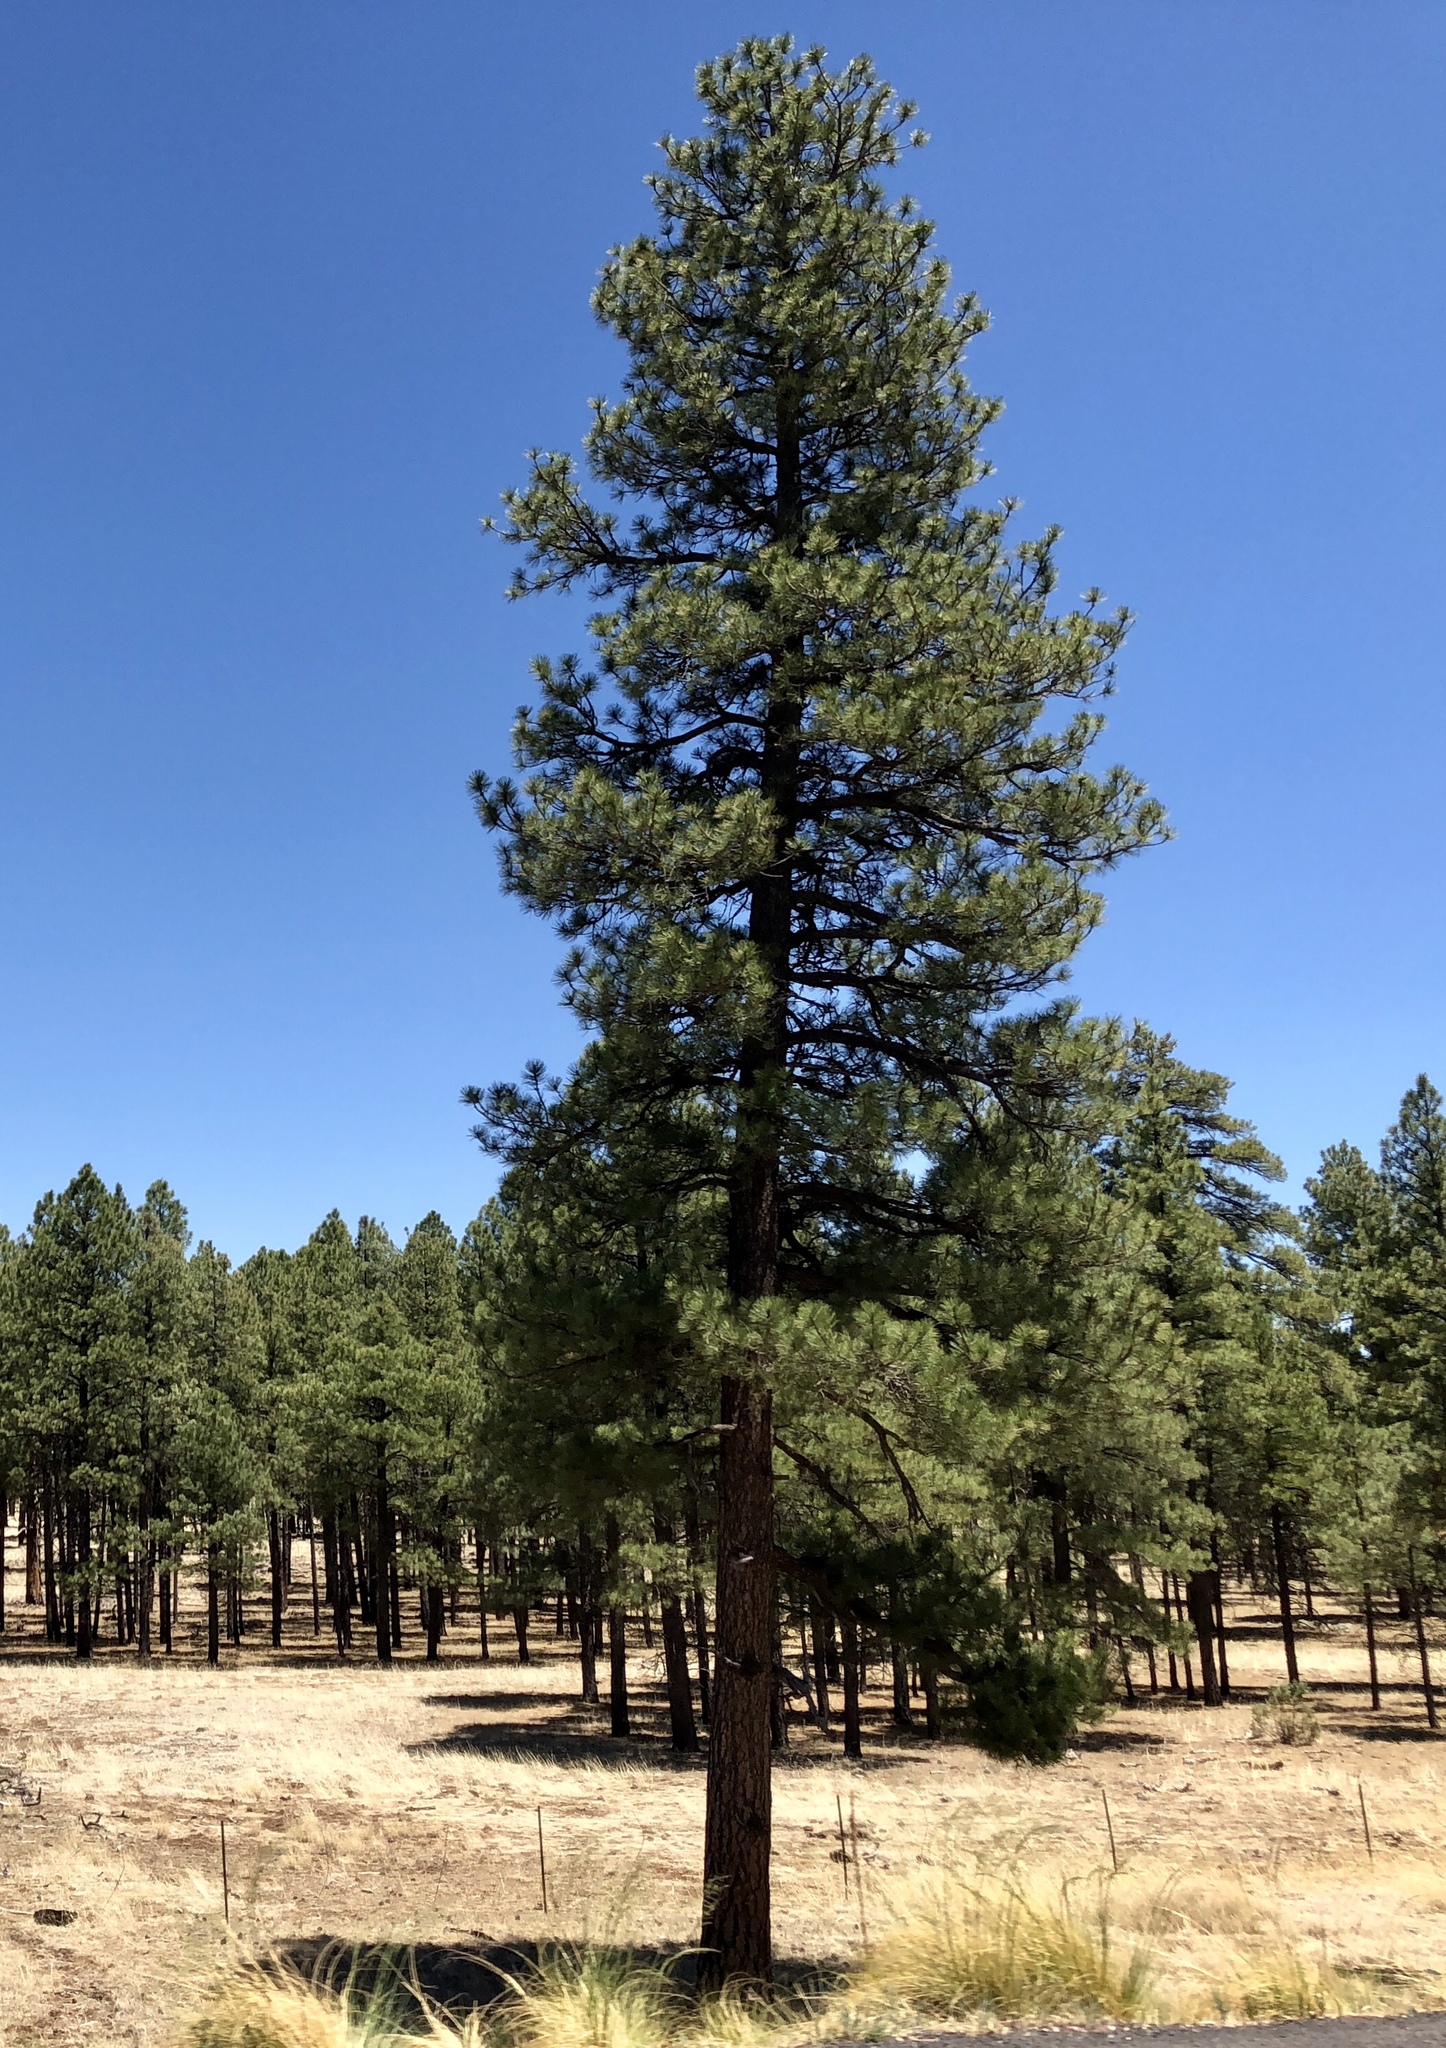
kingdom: Plantae
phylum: Tracheophyta
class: Pinopsida
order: Pinales
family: Pinaceae
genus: Pinus
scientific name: Pinus ponderosa
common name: Western yellow-pine
